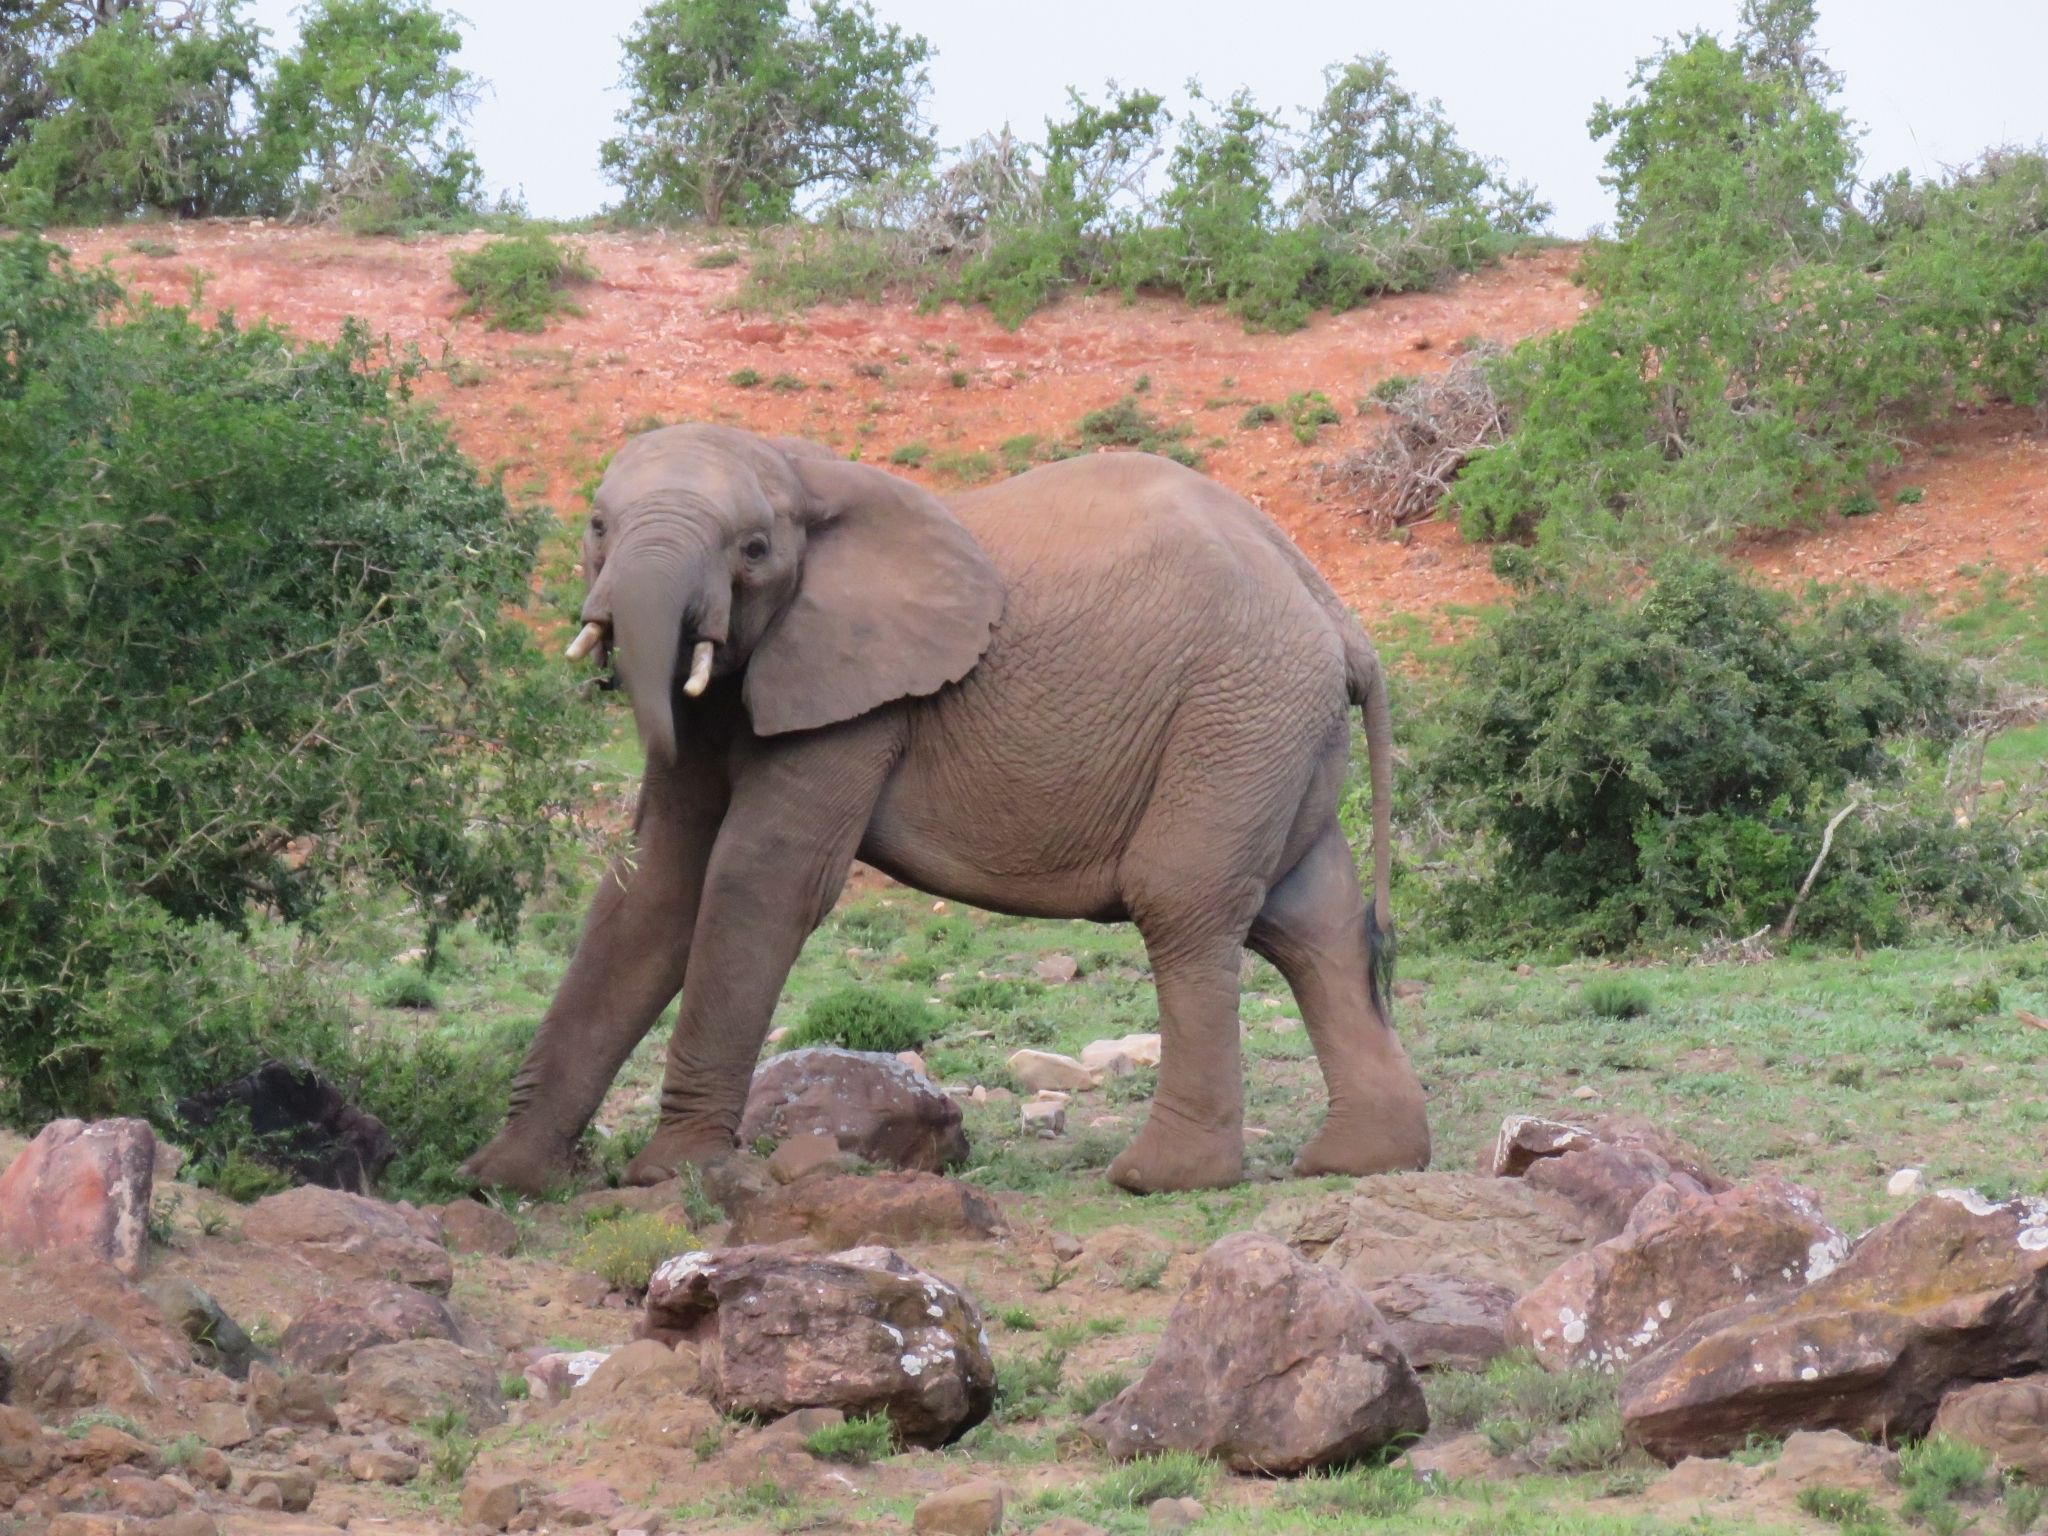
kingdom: Animalia
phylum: Chordata
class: Mammalia
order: Proboscidea
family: Elephantidae
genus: Loxodonta
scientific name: Loxodonta africana
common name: African elephant
